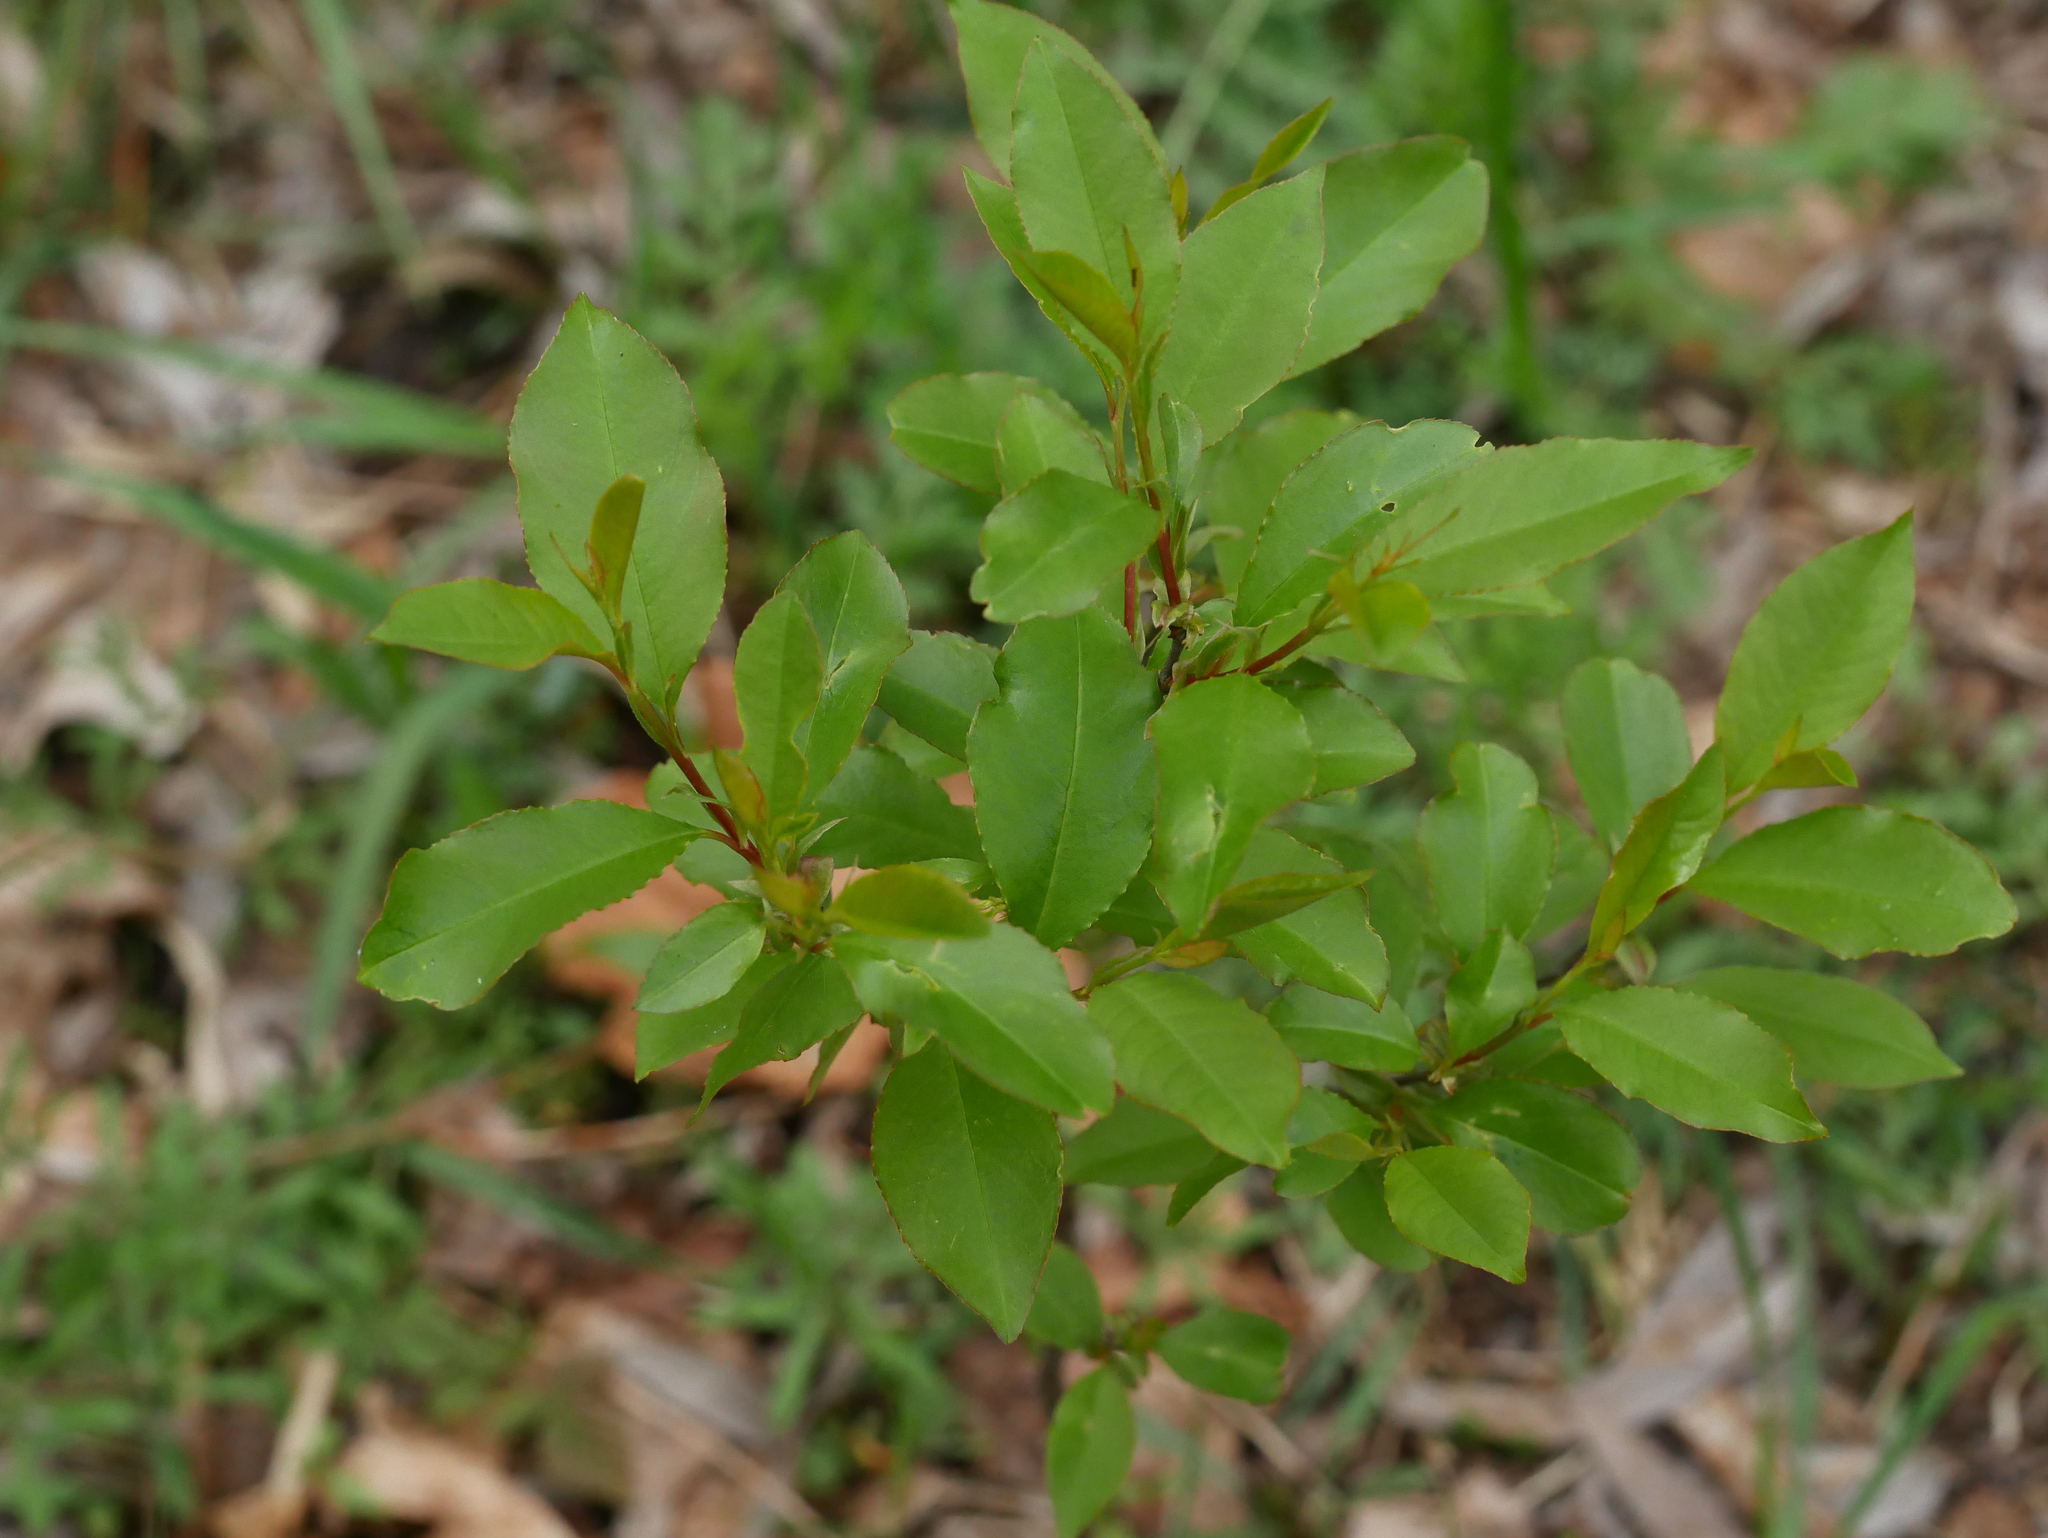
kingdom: Plantae
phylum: Tracheophyta
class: Magnoliopsida
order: Rosales
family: Rosaceae
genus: Prunus
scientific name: Prunus serotina
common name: Black cherry
